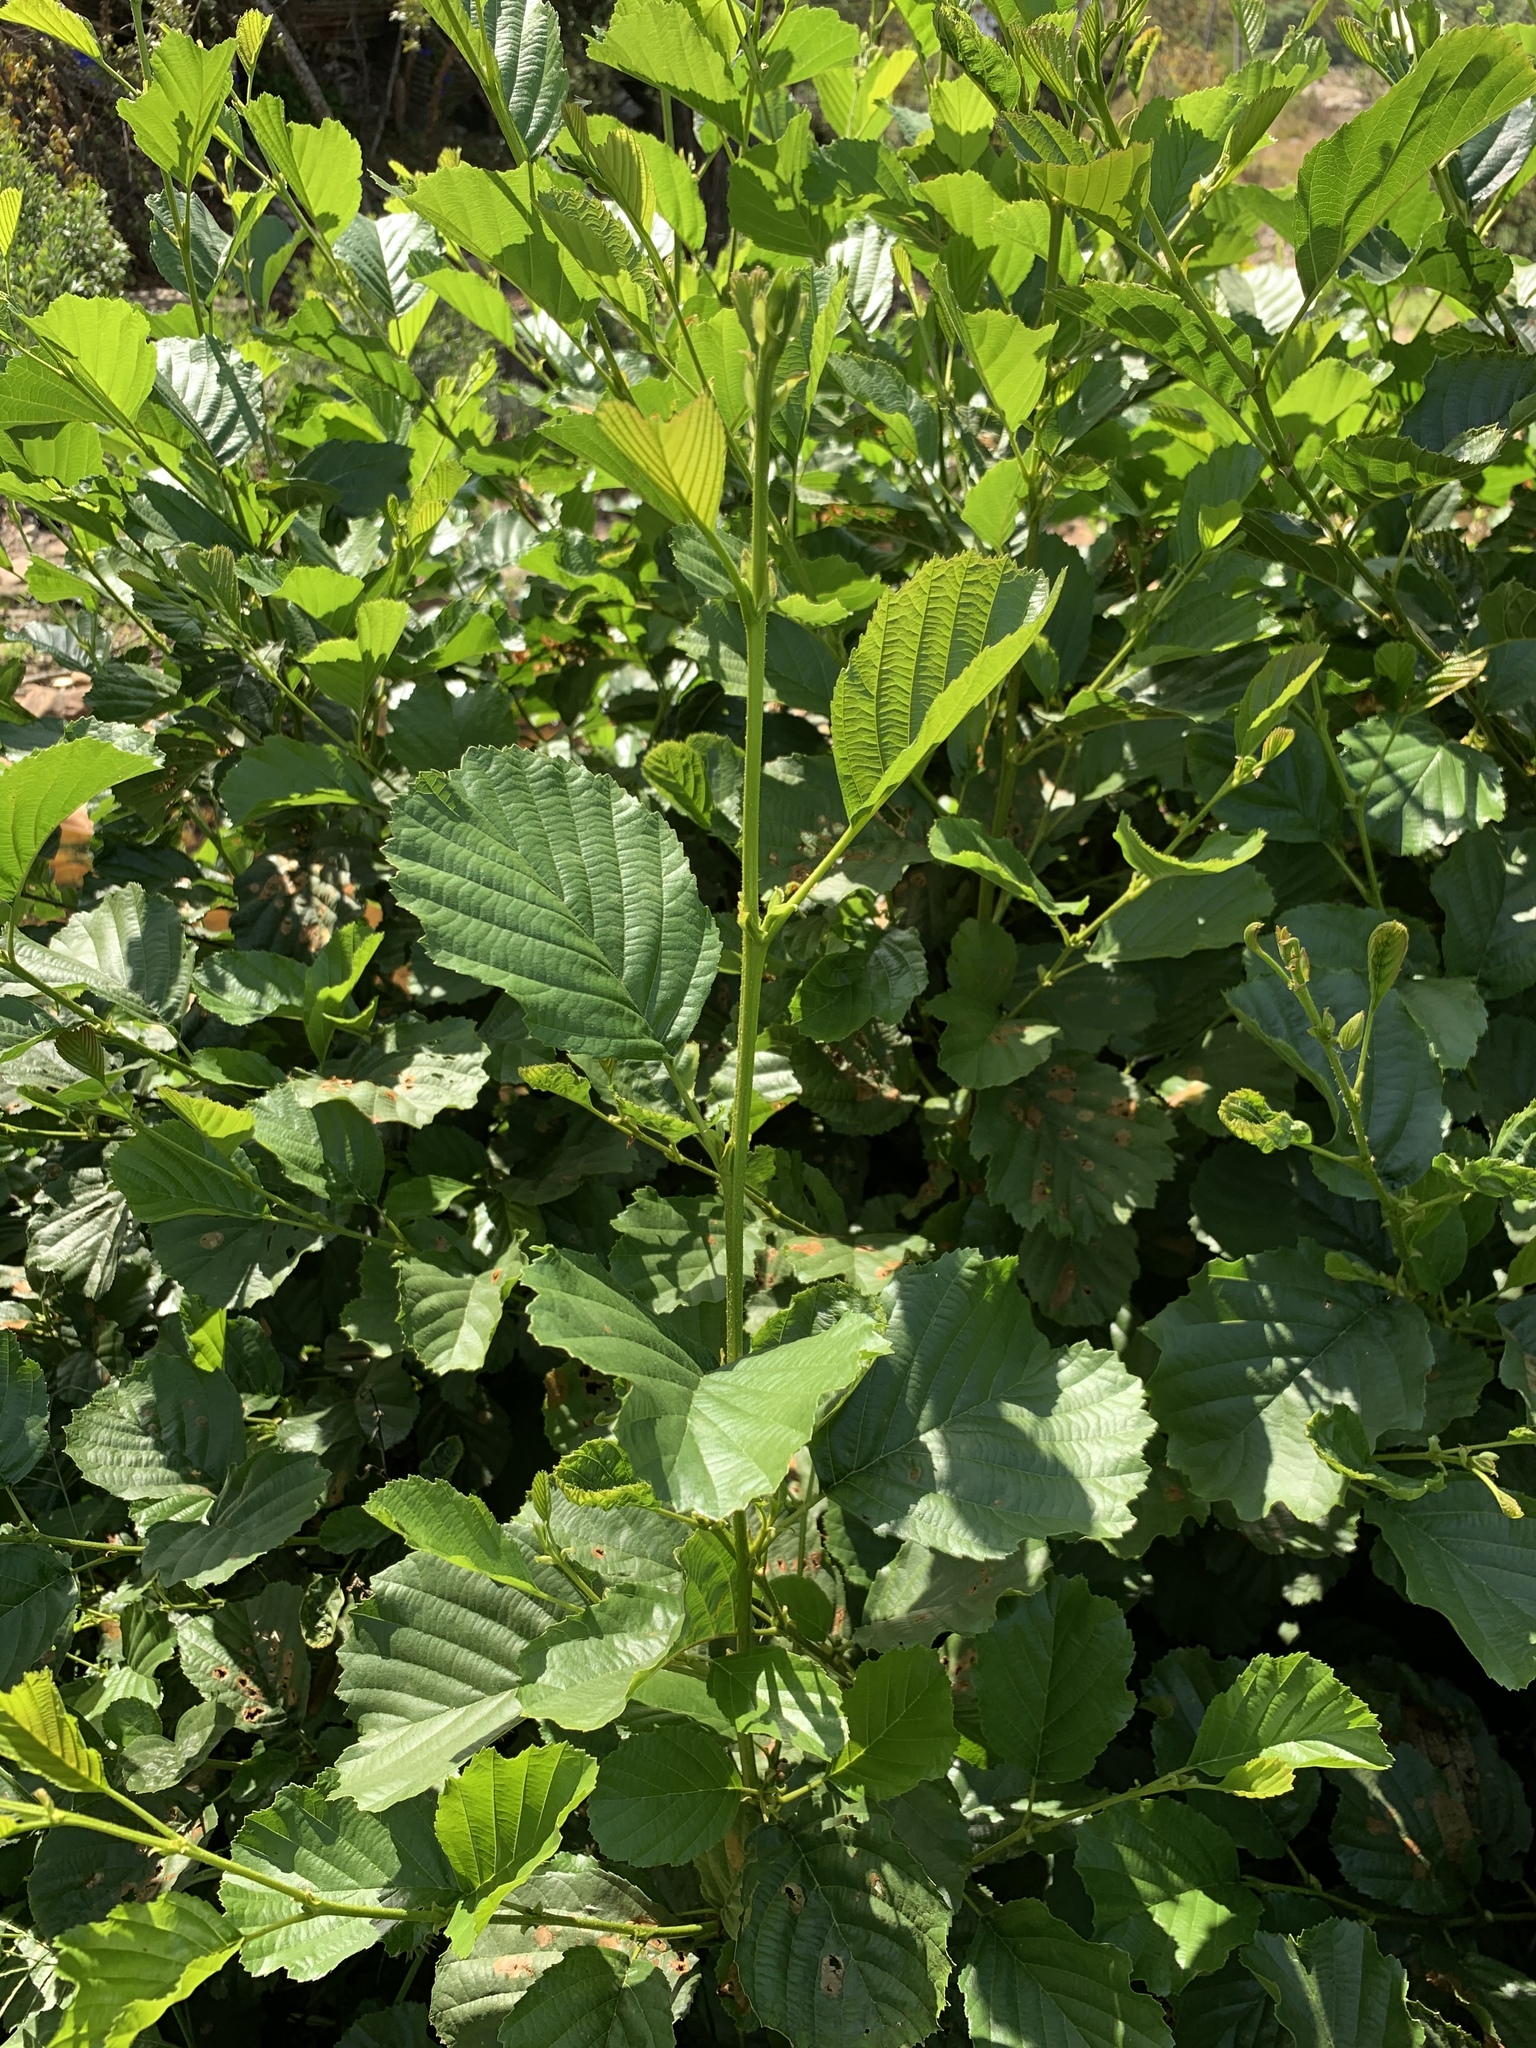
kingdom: Plantae
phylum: Tracheophyta
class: Magnoliopsida
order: Fagales
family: Betulaceae
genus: Alnus
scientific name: Alnus glutinosa
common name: Black alder
